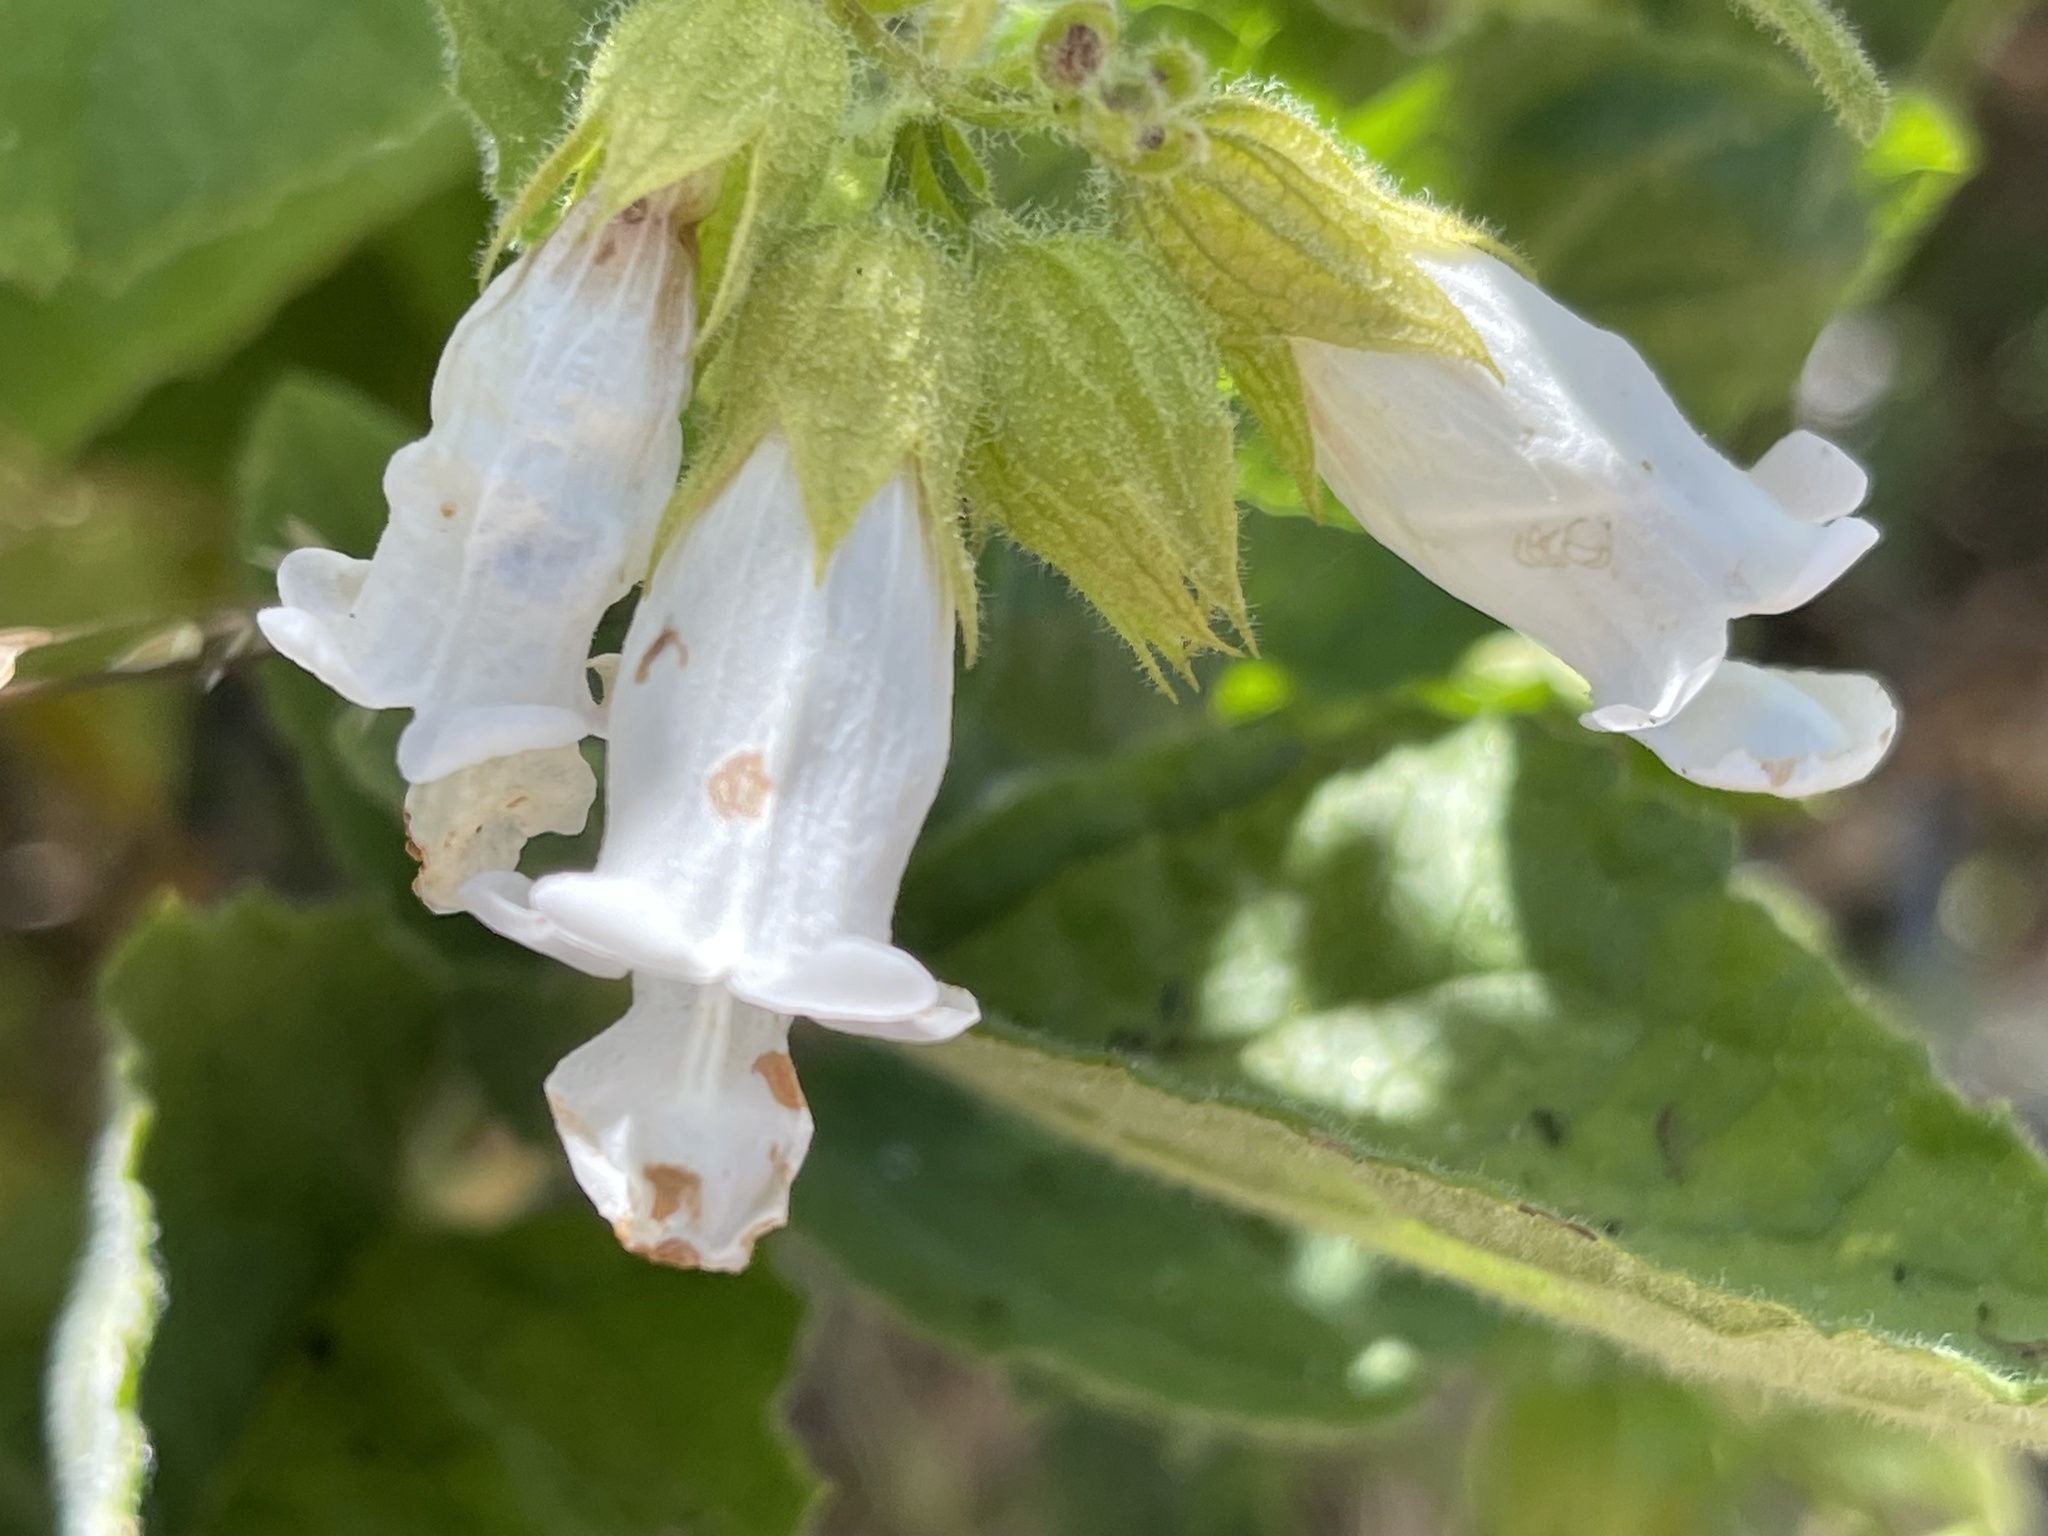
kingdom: Plantae
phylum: Tracheophyta
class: Magnoliopsida
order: Lamiales
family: Lamiaceae
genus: Lepechinia
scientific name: Lepechinia calycina
